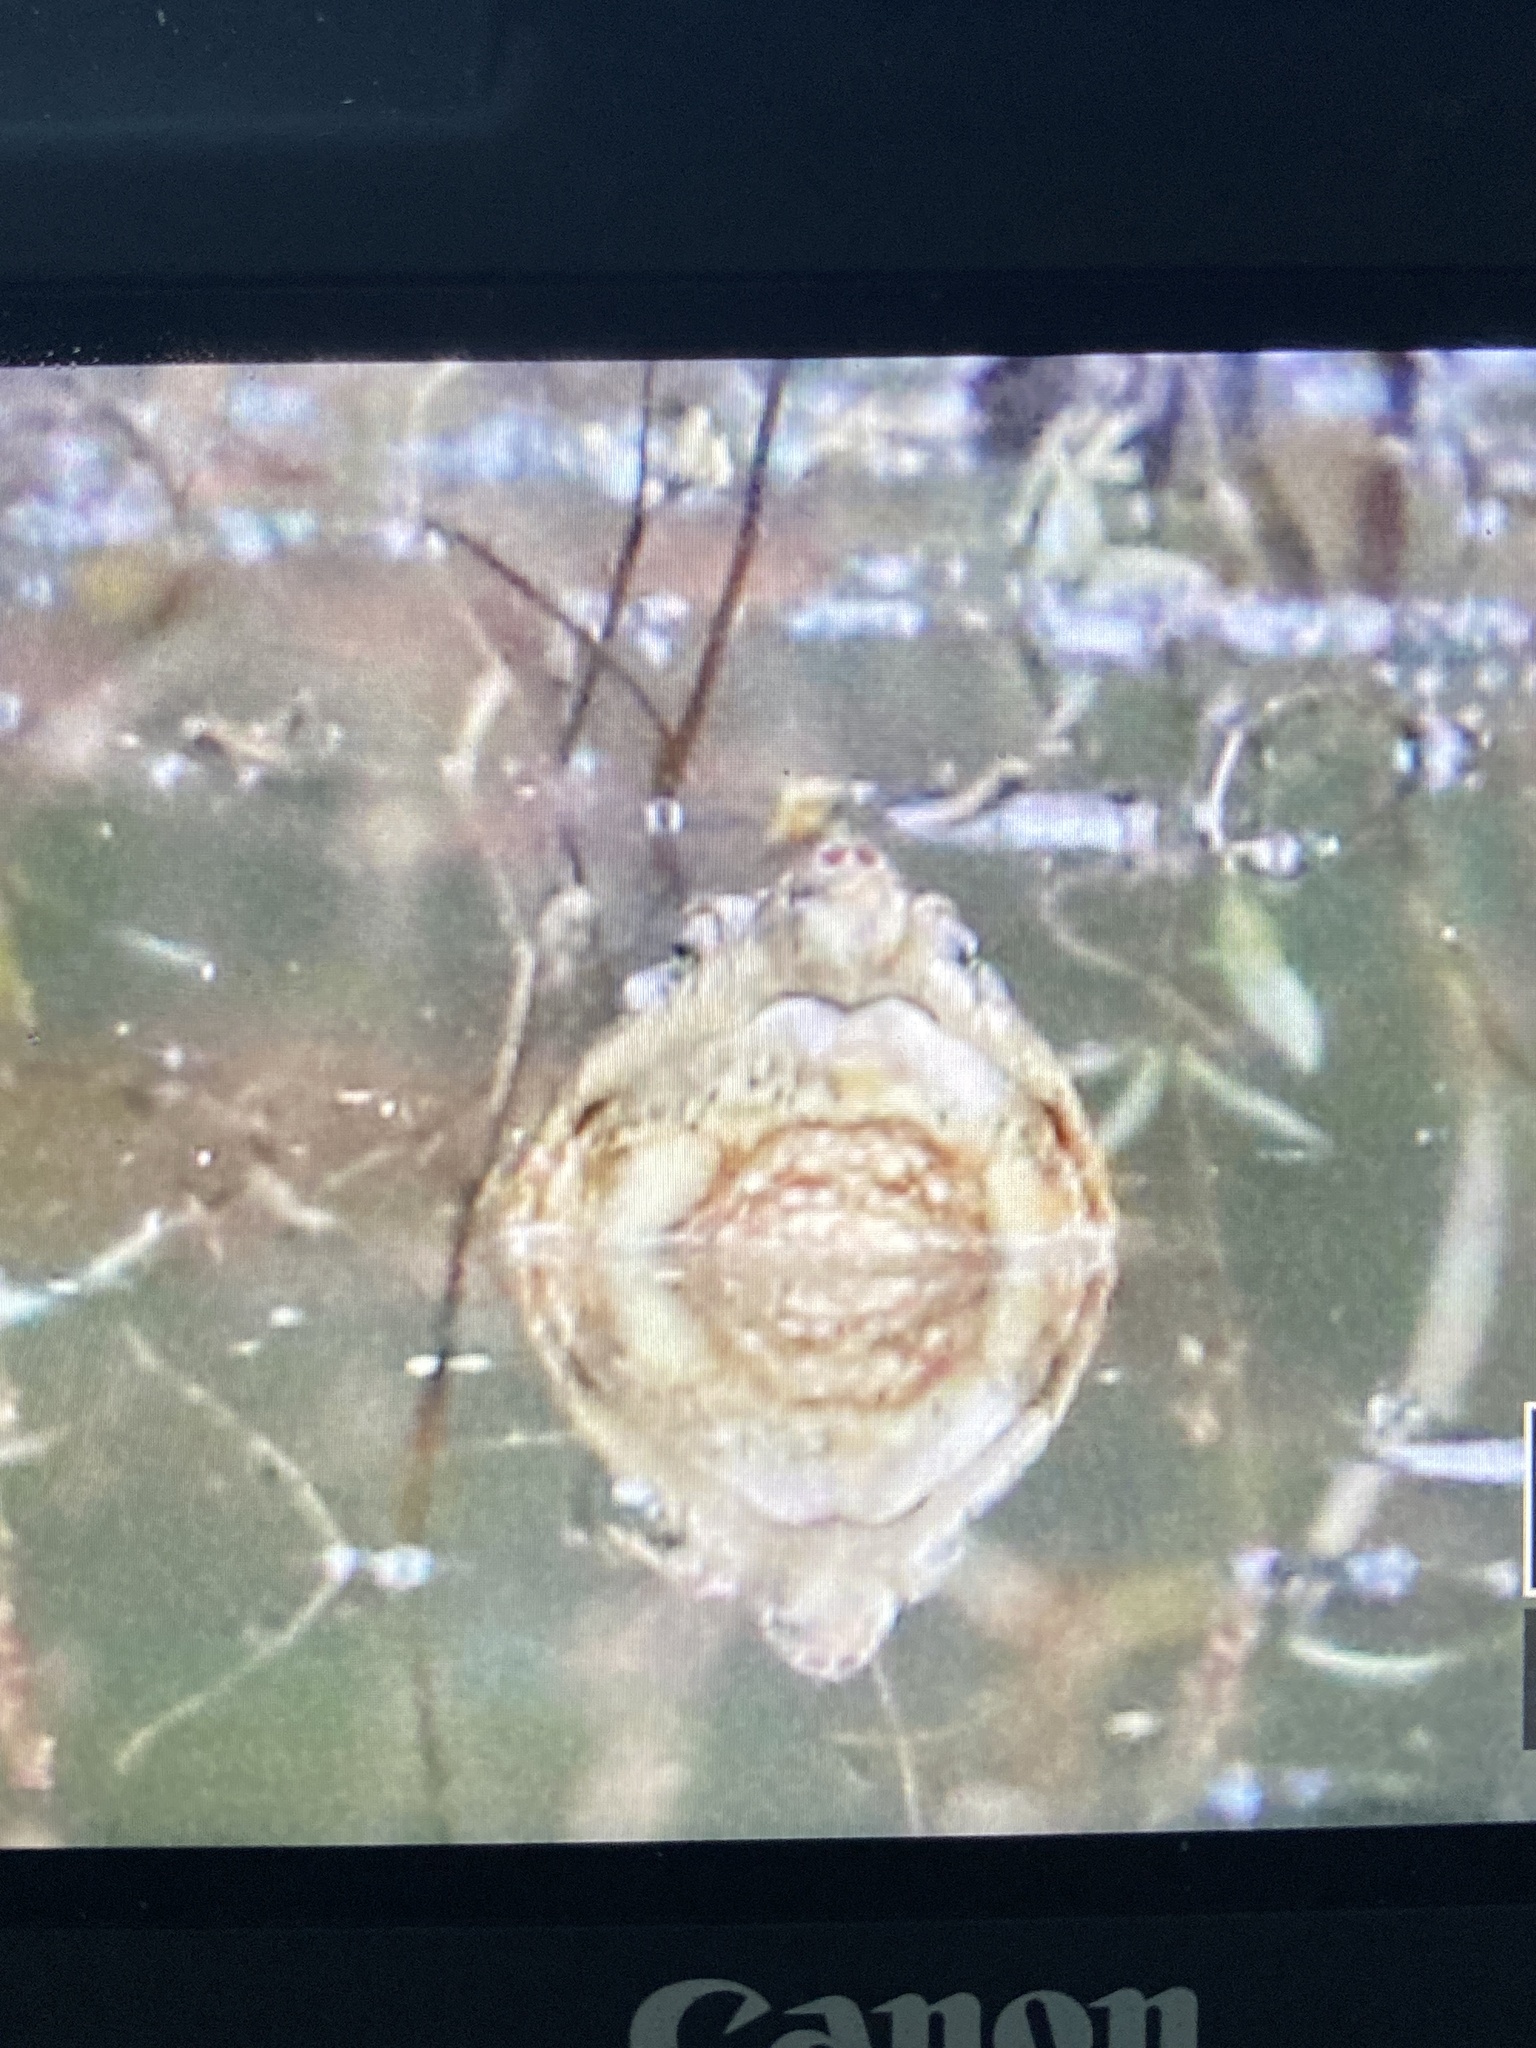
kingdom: Animalia
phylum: Chordata
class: Testudines
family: Chelydridae
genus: Chelydra
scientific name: Chelydra serpentina
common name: Common snapping turtle
